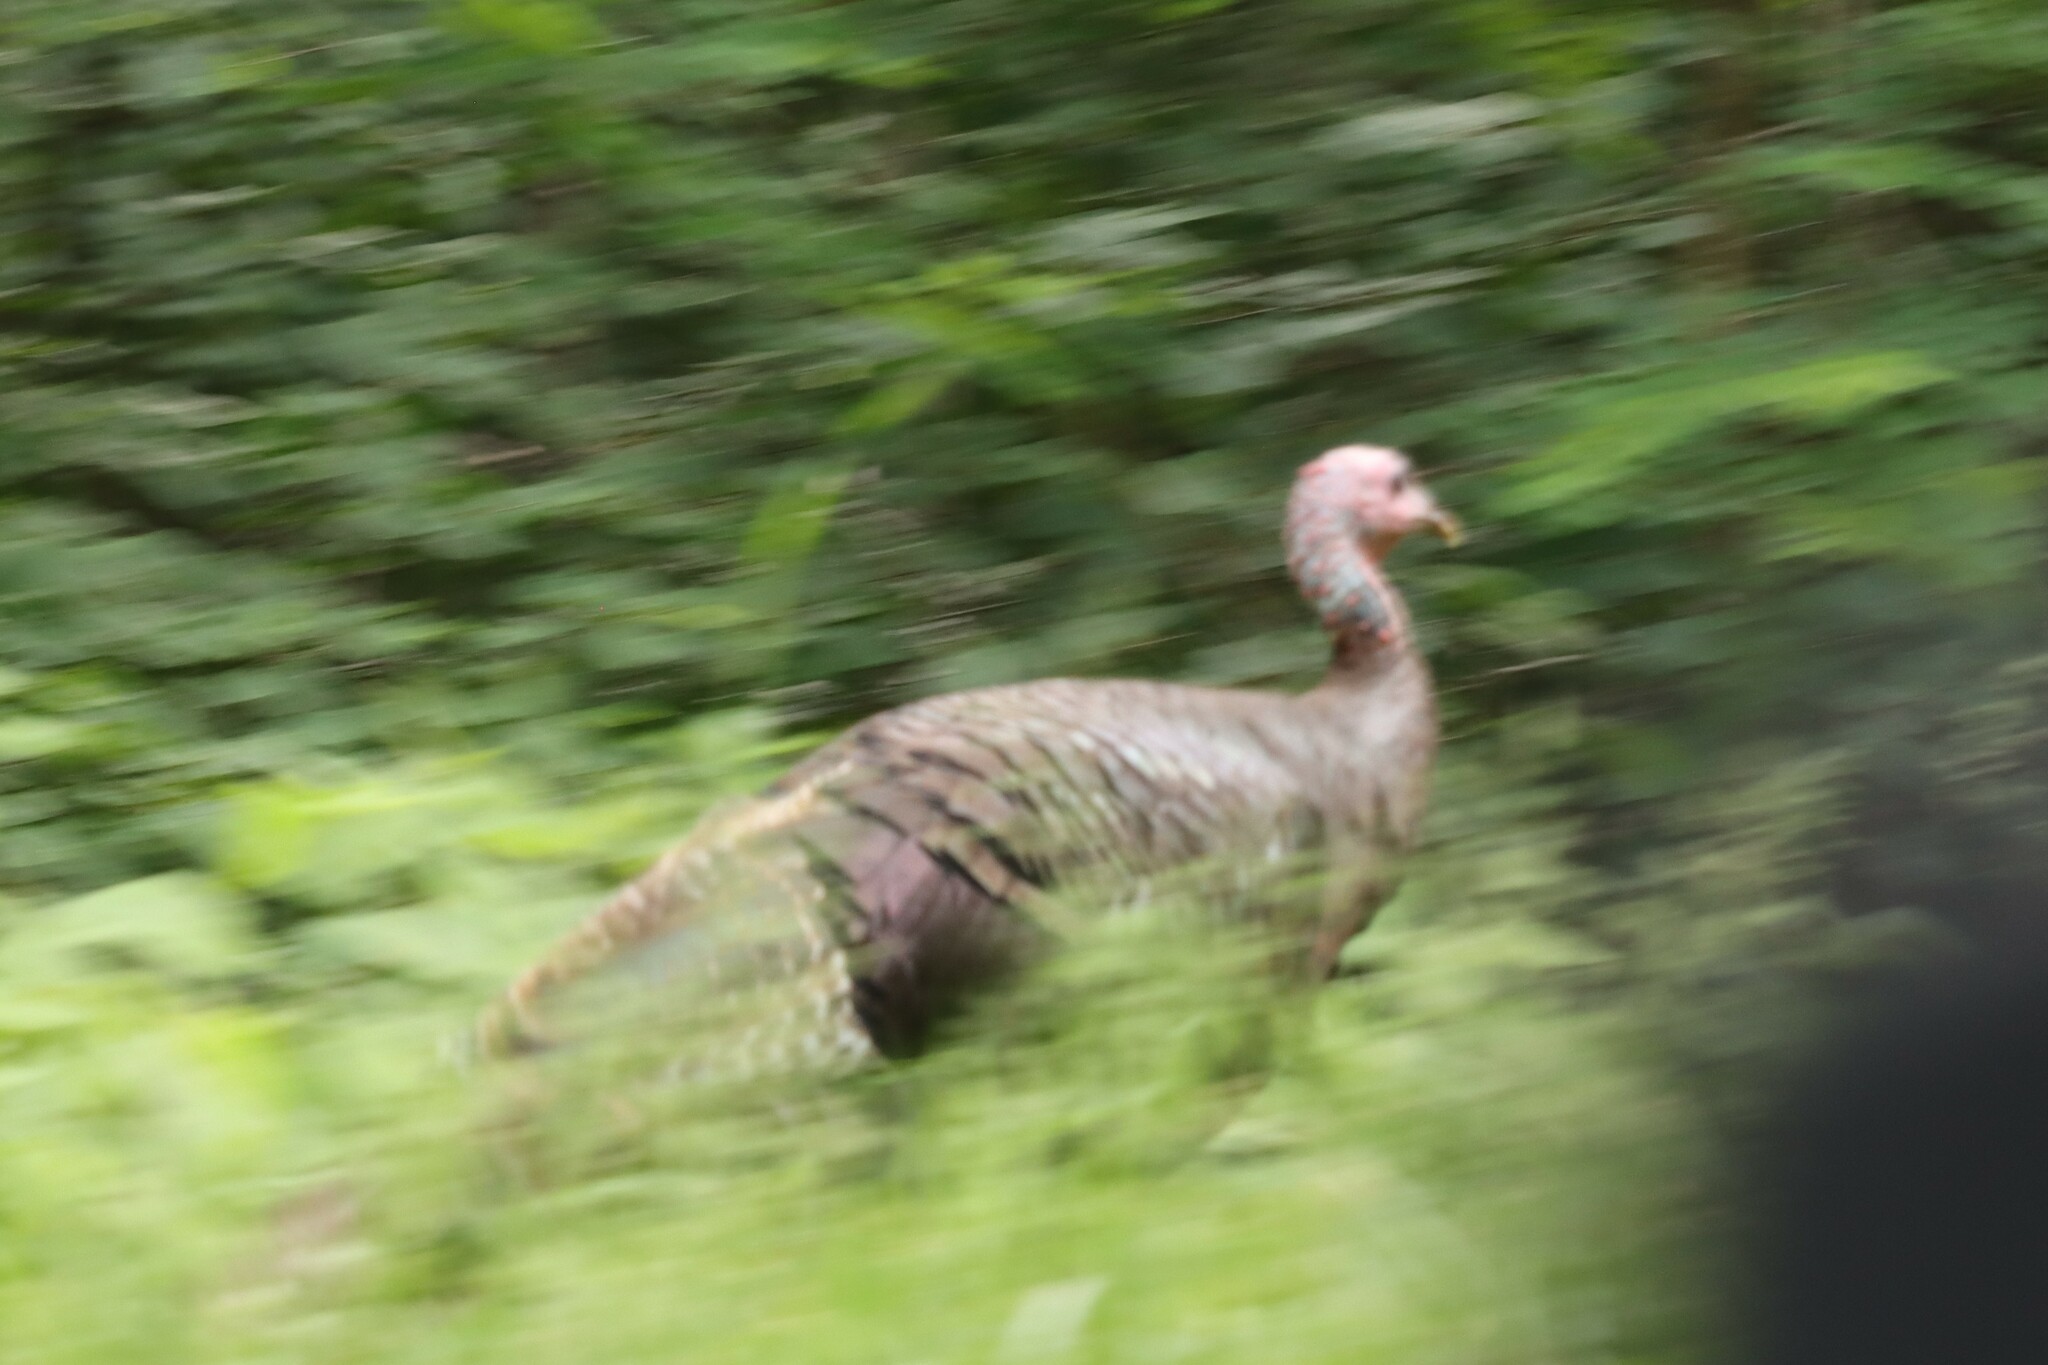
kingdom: Animalia
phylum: Chordata
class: Aves
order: Galliformes
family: Phasianidae
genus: Meleagris
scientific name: Meleagris gallopavo
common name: Wild turkey
